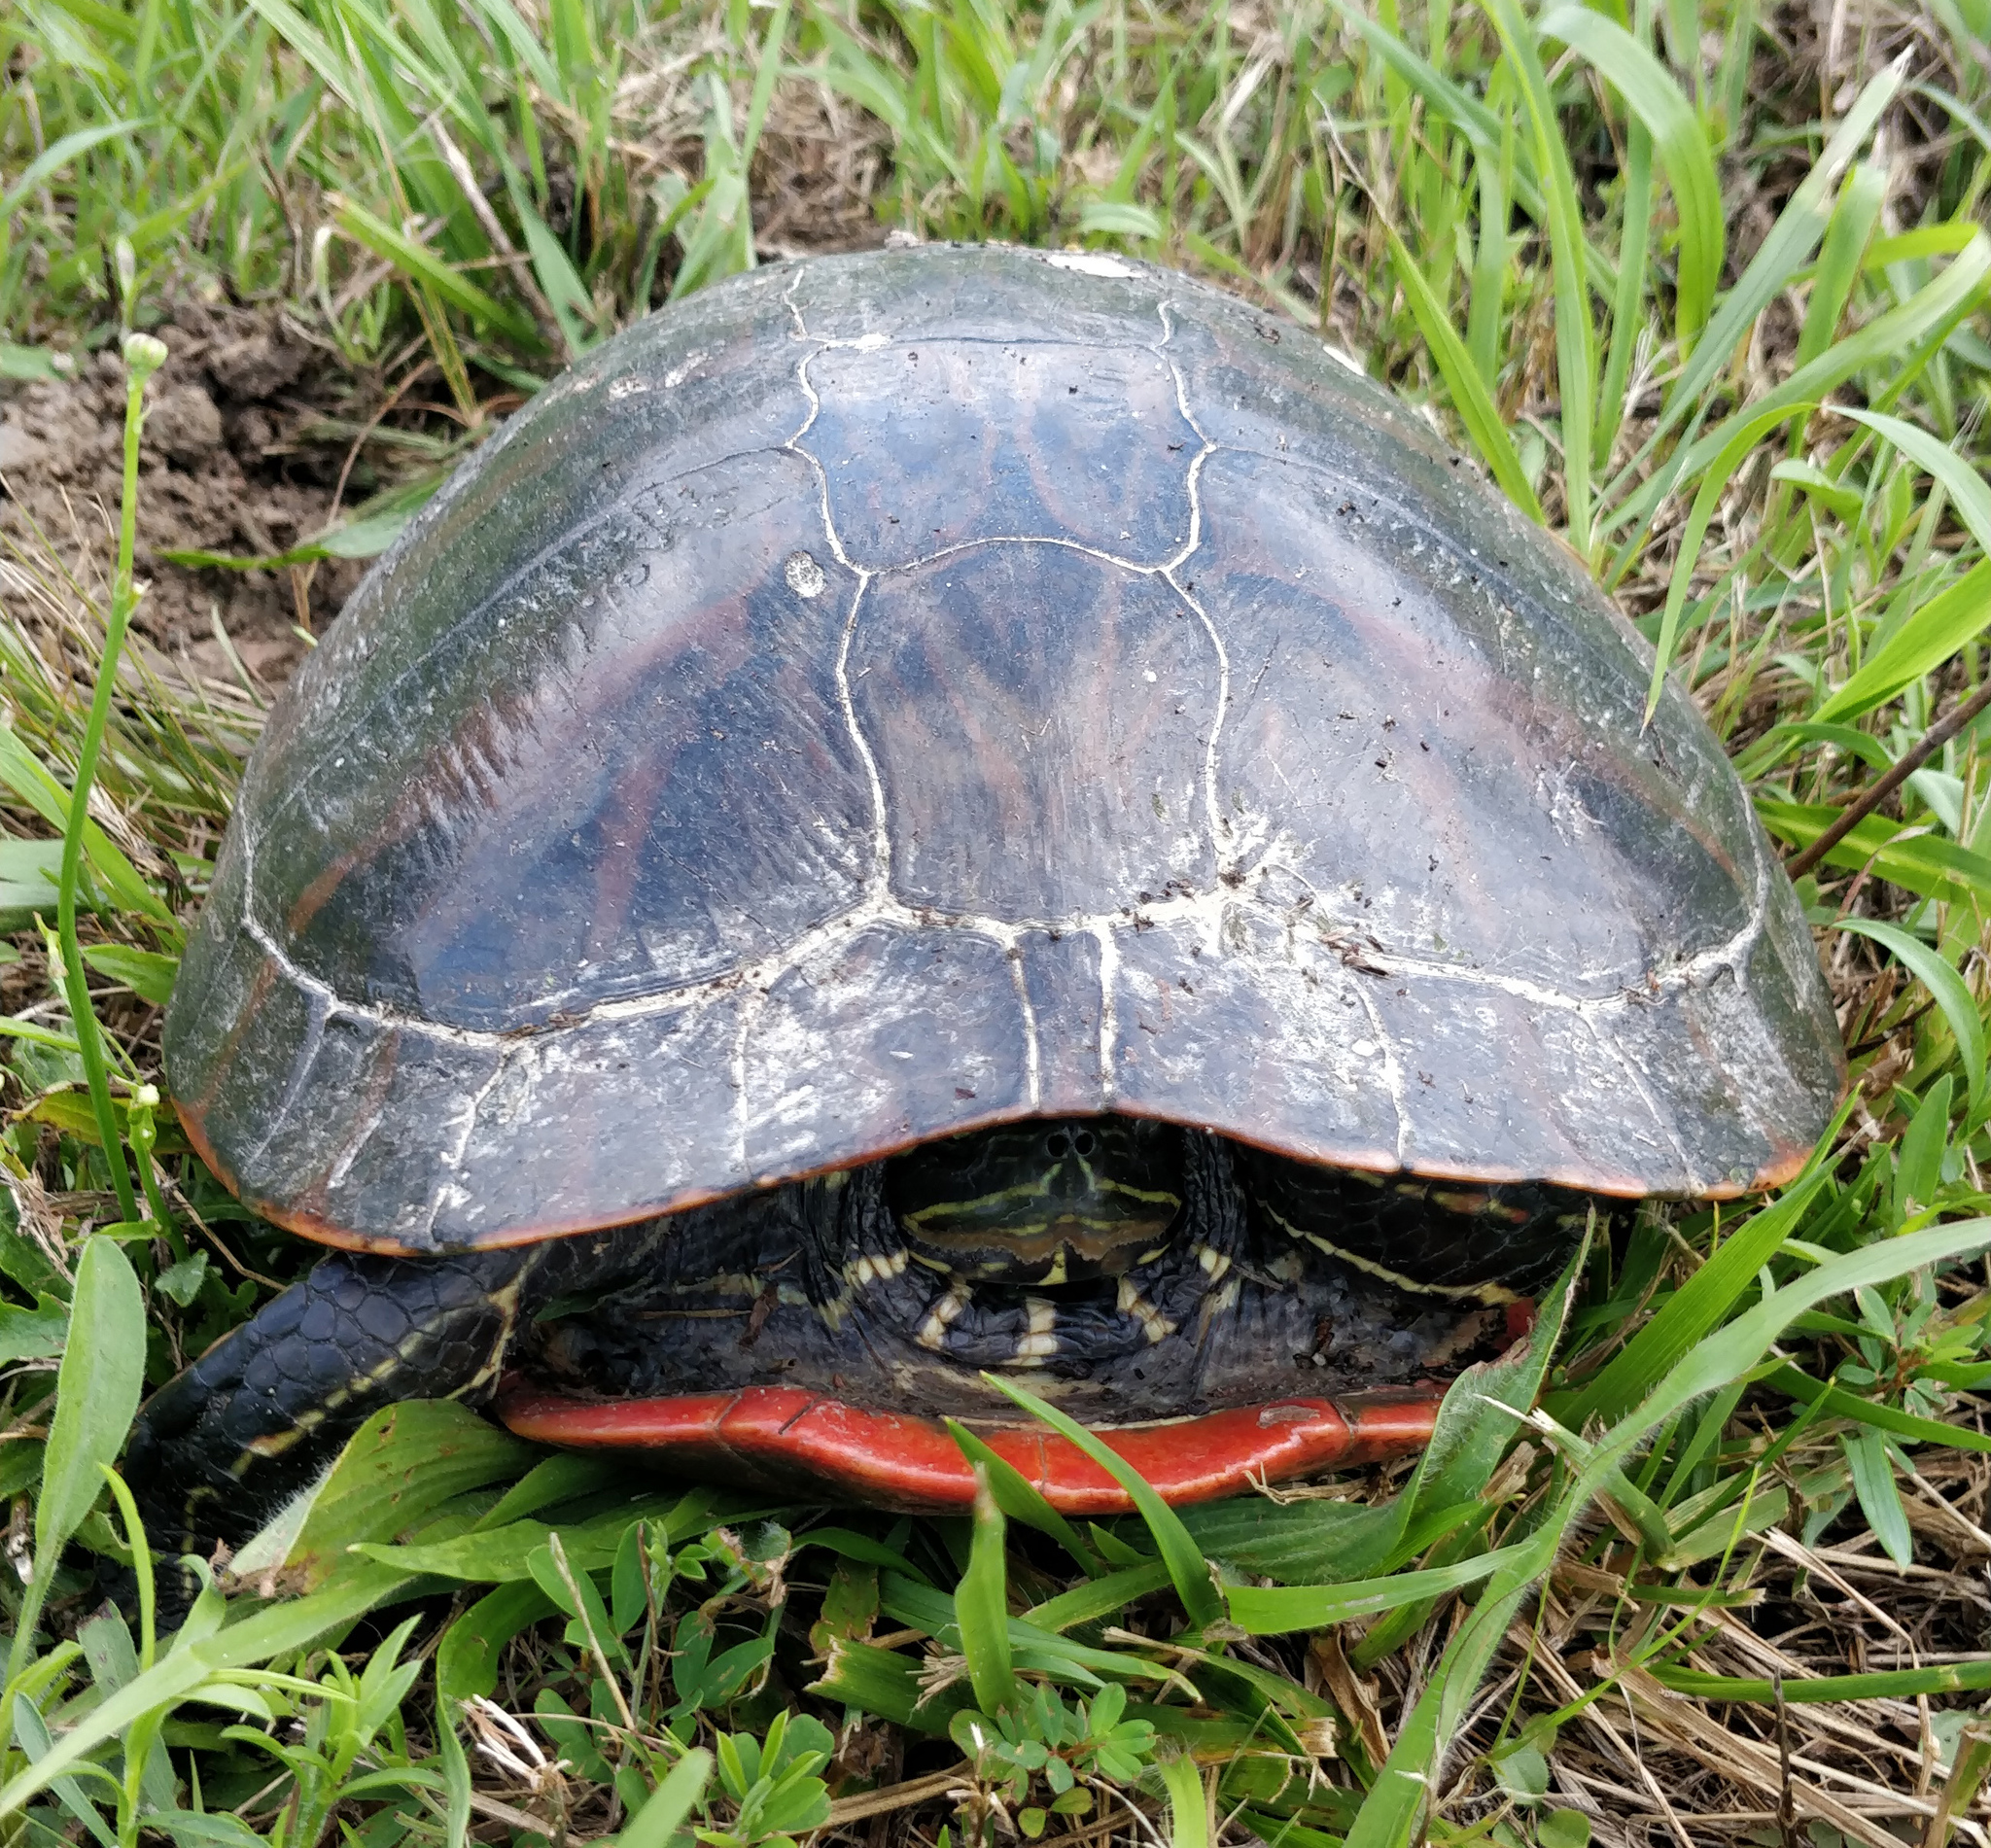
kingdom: Animalia
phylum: Chordata
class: Testudines
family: Emydidae
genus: Pseudemys
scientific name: Pseudemys rubriventris
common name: American red-bellied turtle
